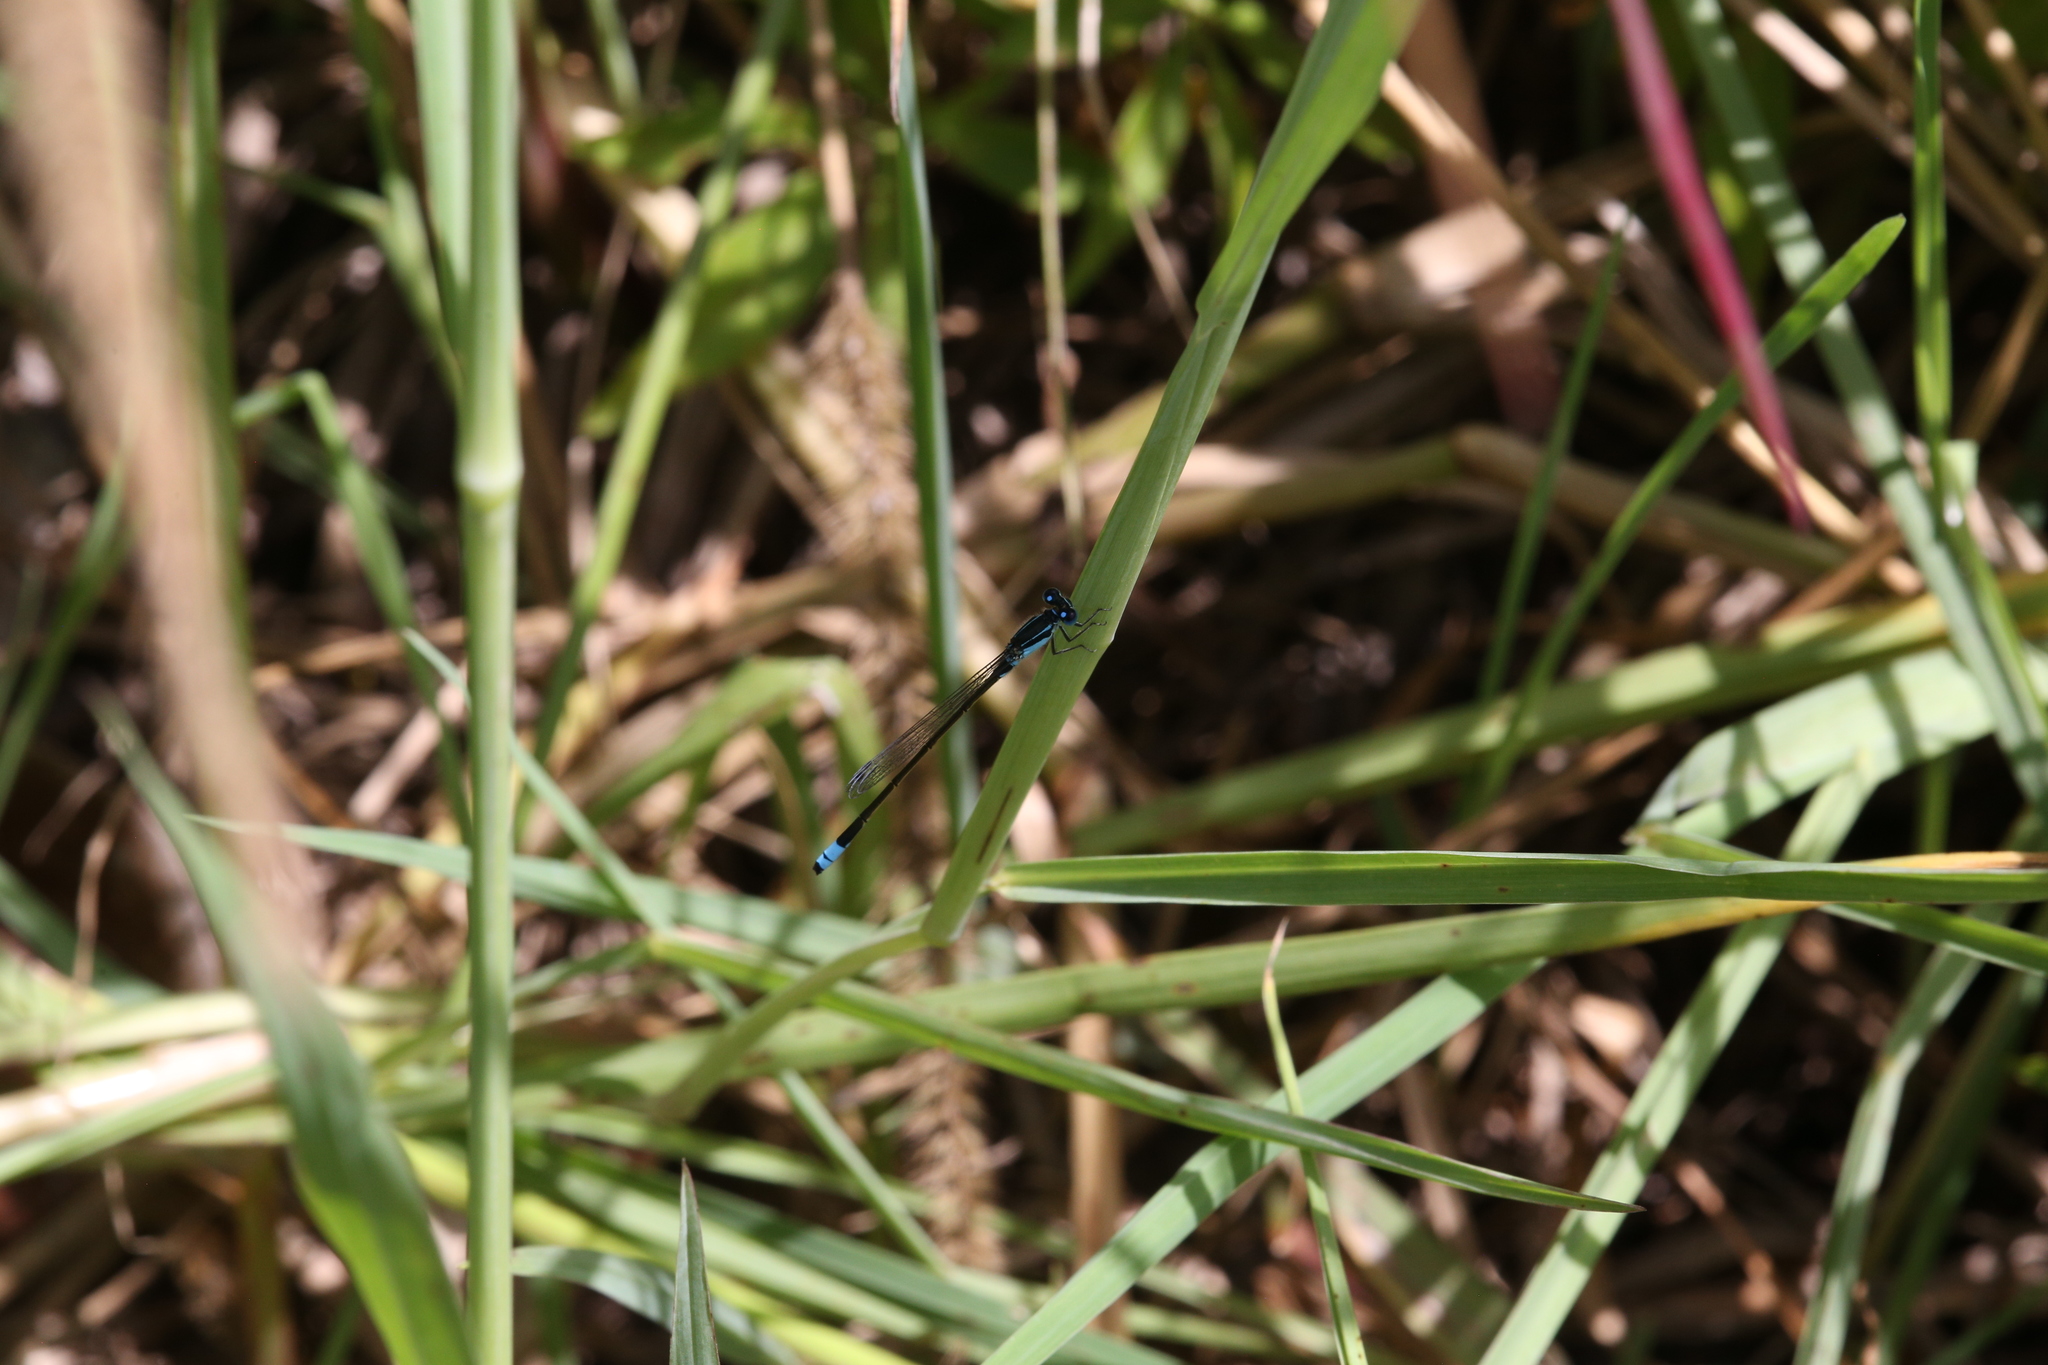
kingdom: Animalia
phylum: Arthropoda
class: Insecta
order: Odonata
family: Coenagrionidae
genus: Ischnura
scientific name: Ischnura heterosticta
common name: Common bluetail
